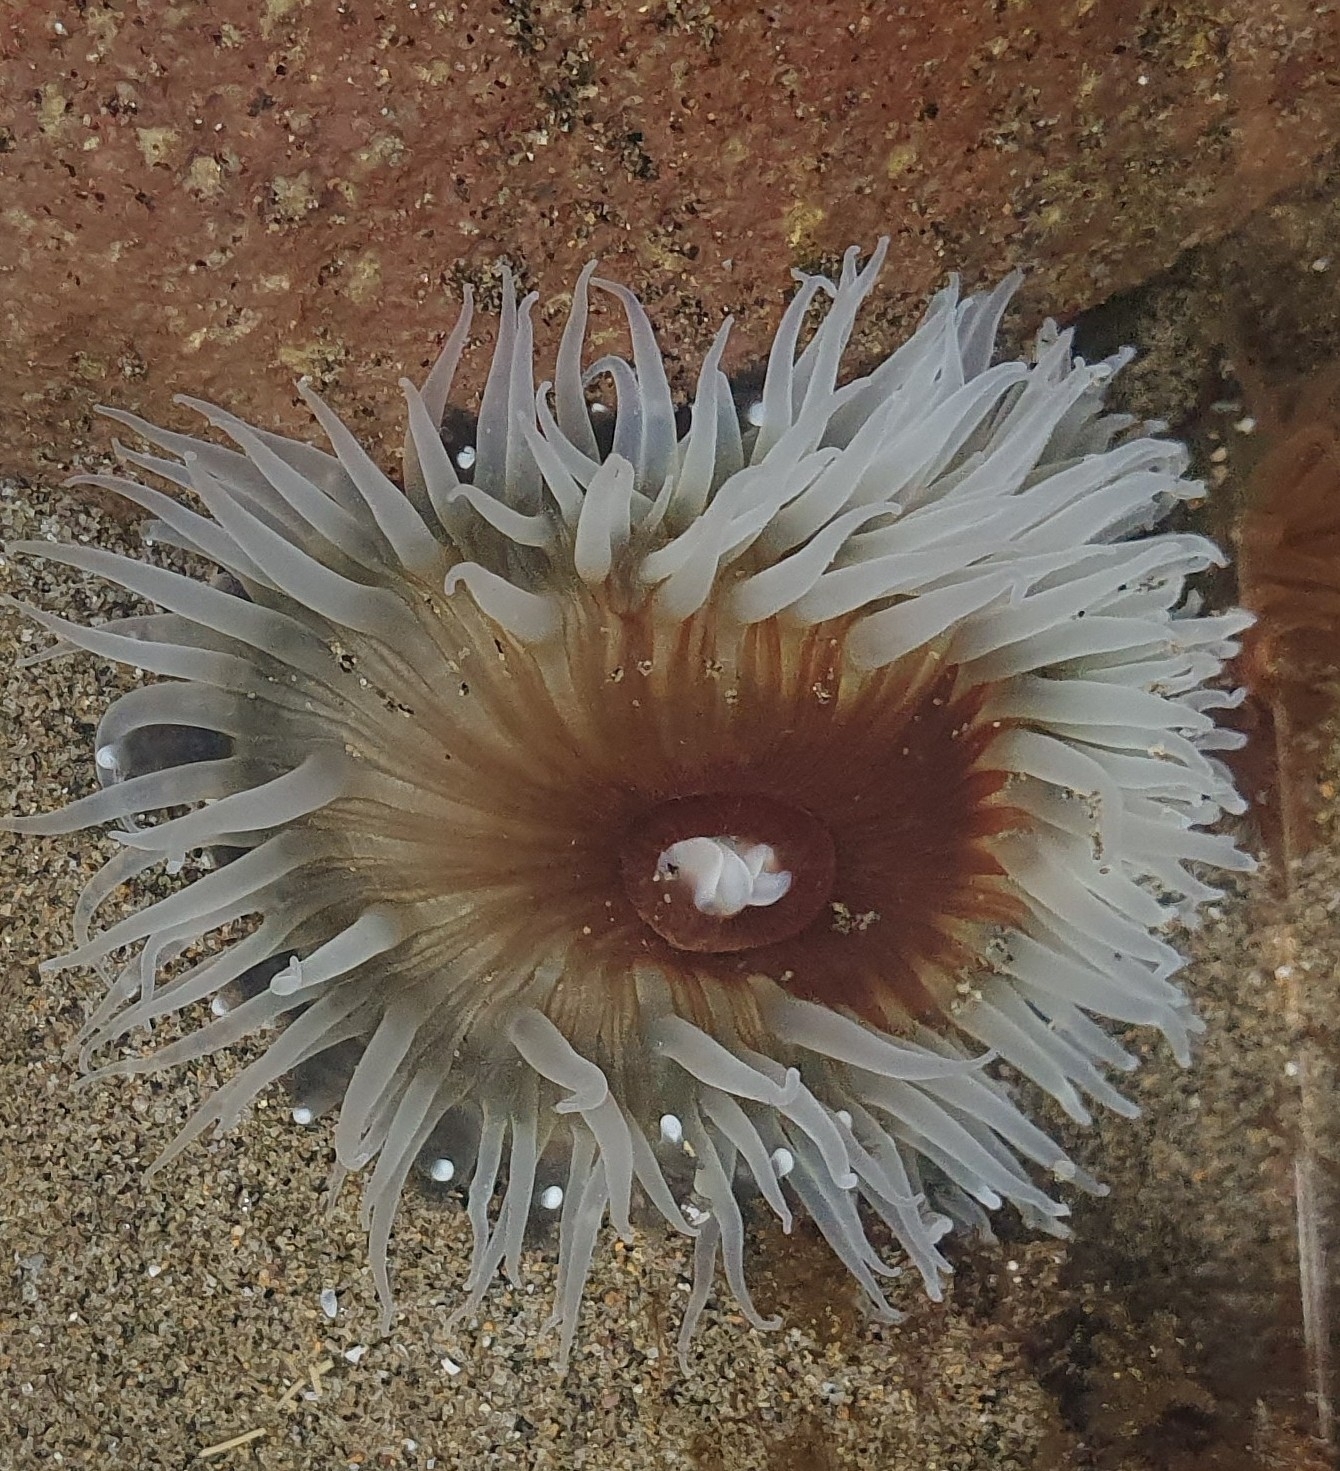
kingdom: Animalia
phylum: Cnidaria
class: Anthozoa
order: Actiniaria
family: Actiniidae
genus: Oulactis
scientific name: Oulactis magna
